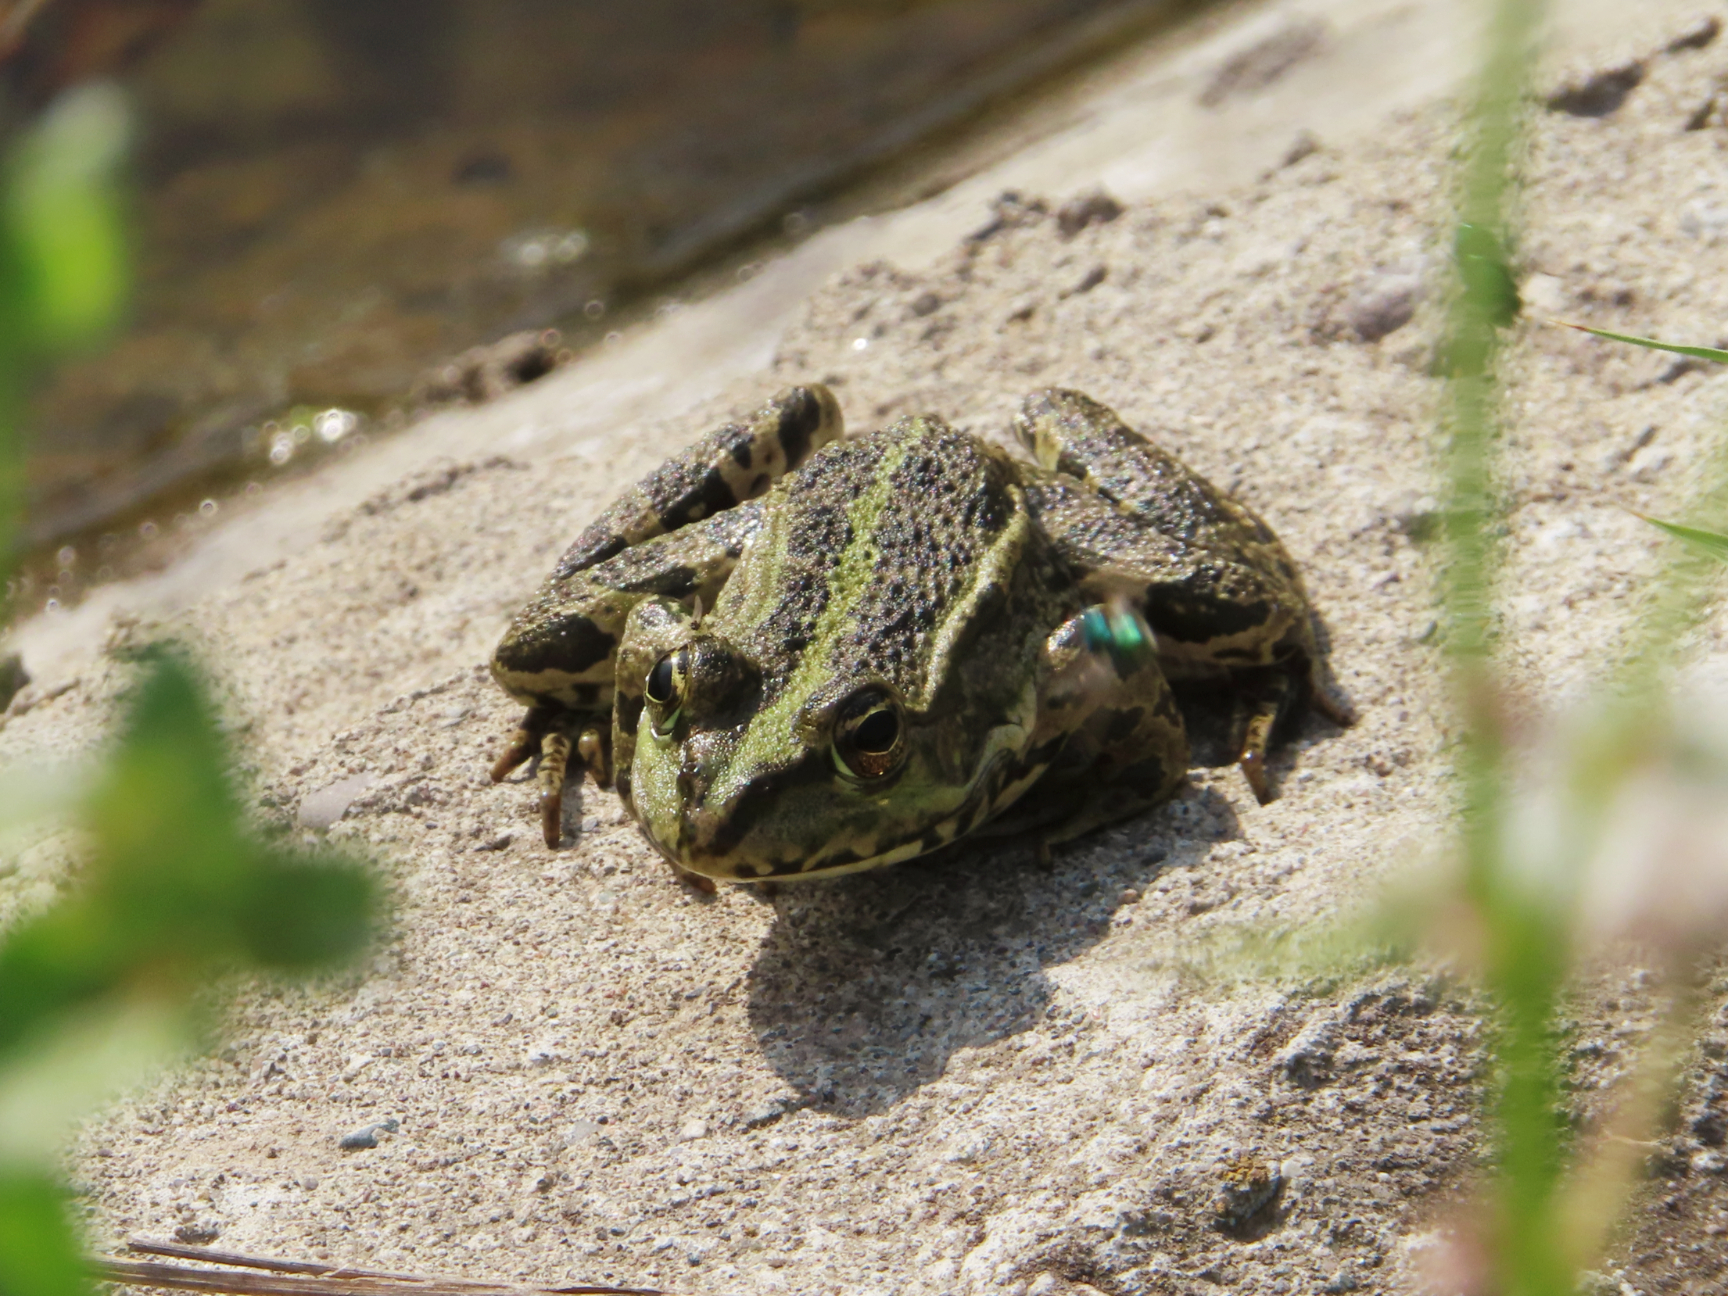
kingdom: Animalia
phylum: Chordata
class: Amphibia
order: Anura
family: Ranidae
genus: Pelophylax
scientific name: Pelophylax ridibundus
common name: Marsh frog
